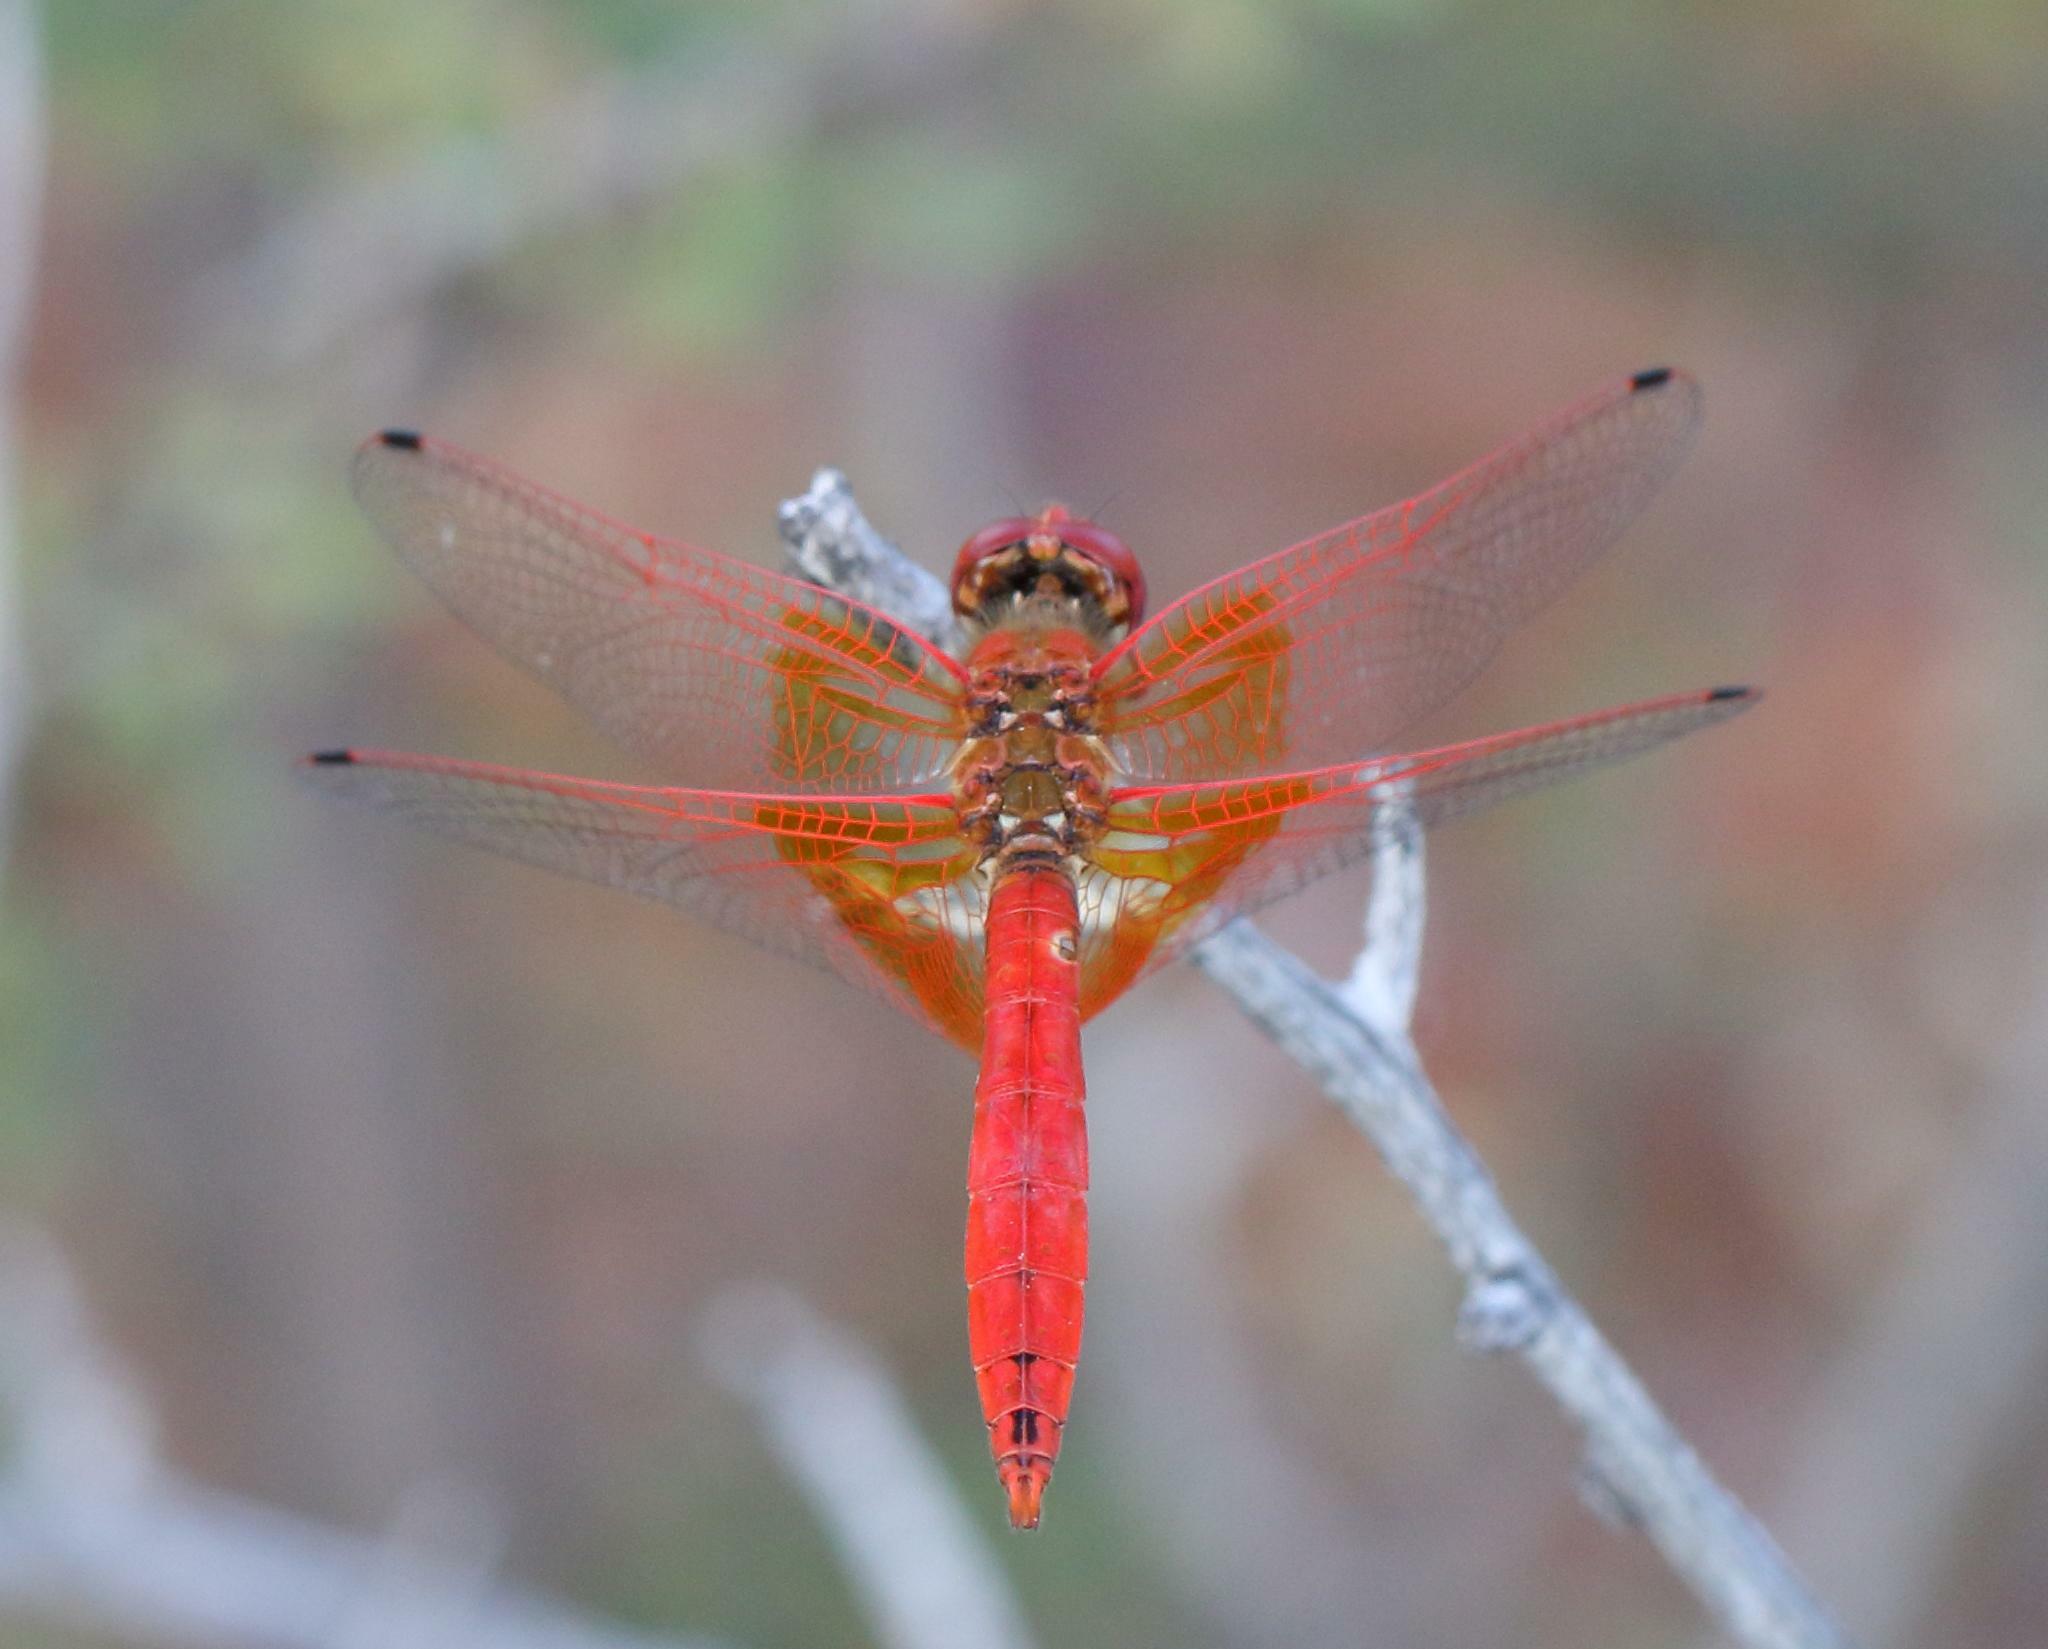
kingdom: Animalia
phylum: Arthropoda
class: Insecta
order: Odonata
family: Libellulidae
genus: Trithemis
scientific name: Trithemis kirbyi
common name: Kirby's dropwing
